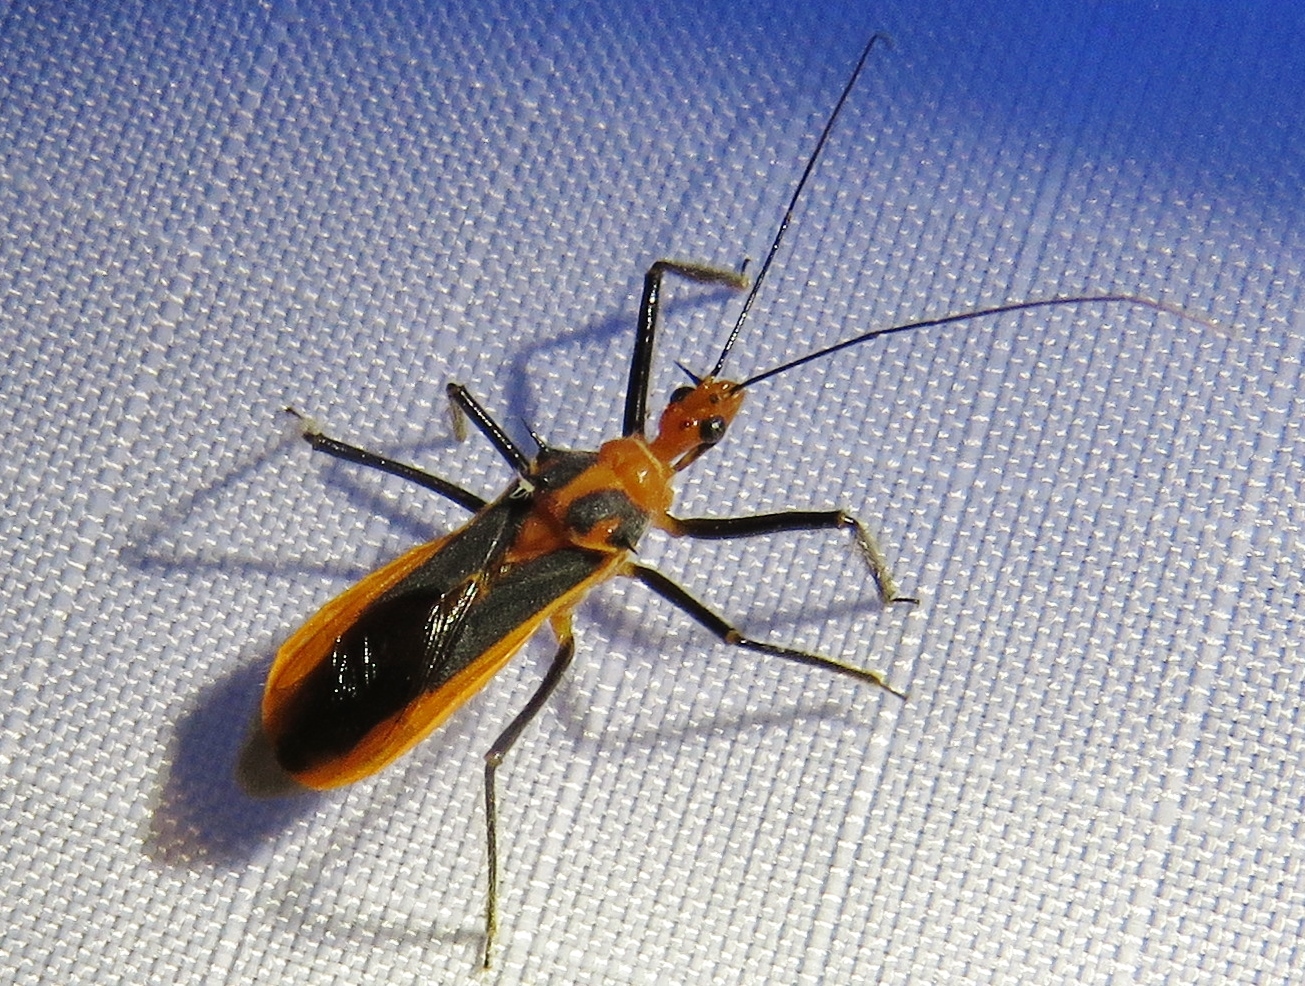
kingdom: Animalia
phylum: Arthropoda
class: Insecta
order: Hemiptera
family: Reduviidae
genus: Repipta
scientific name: Repipta taurus
